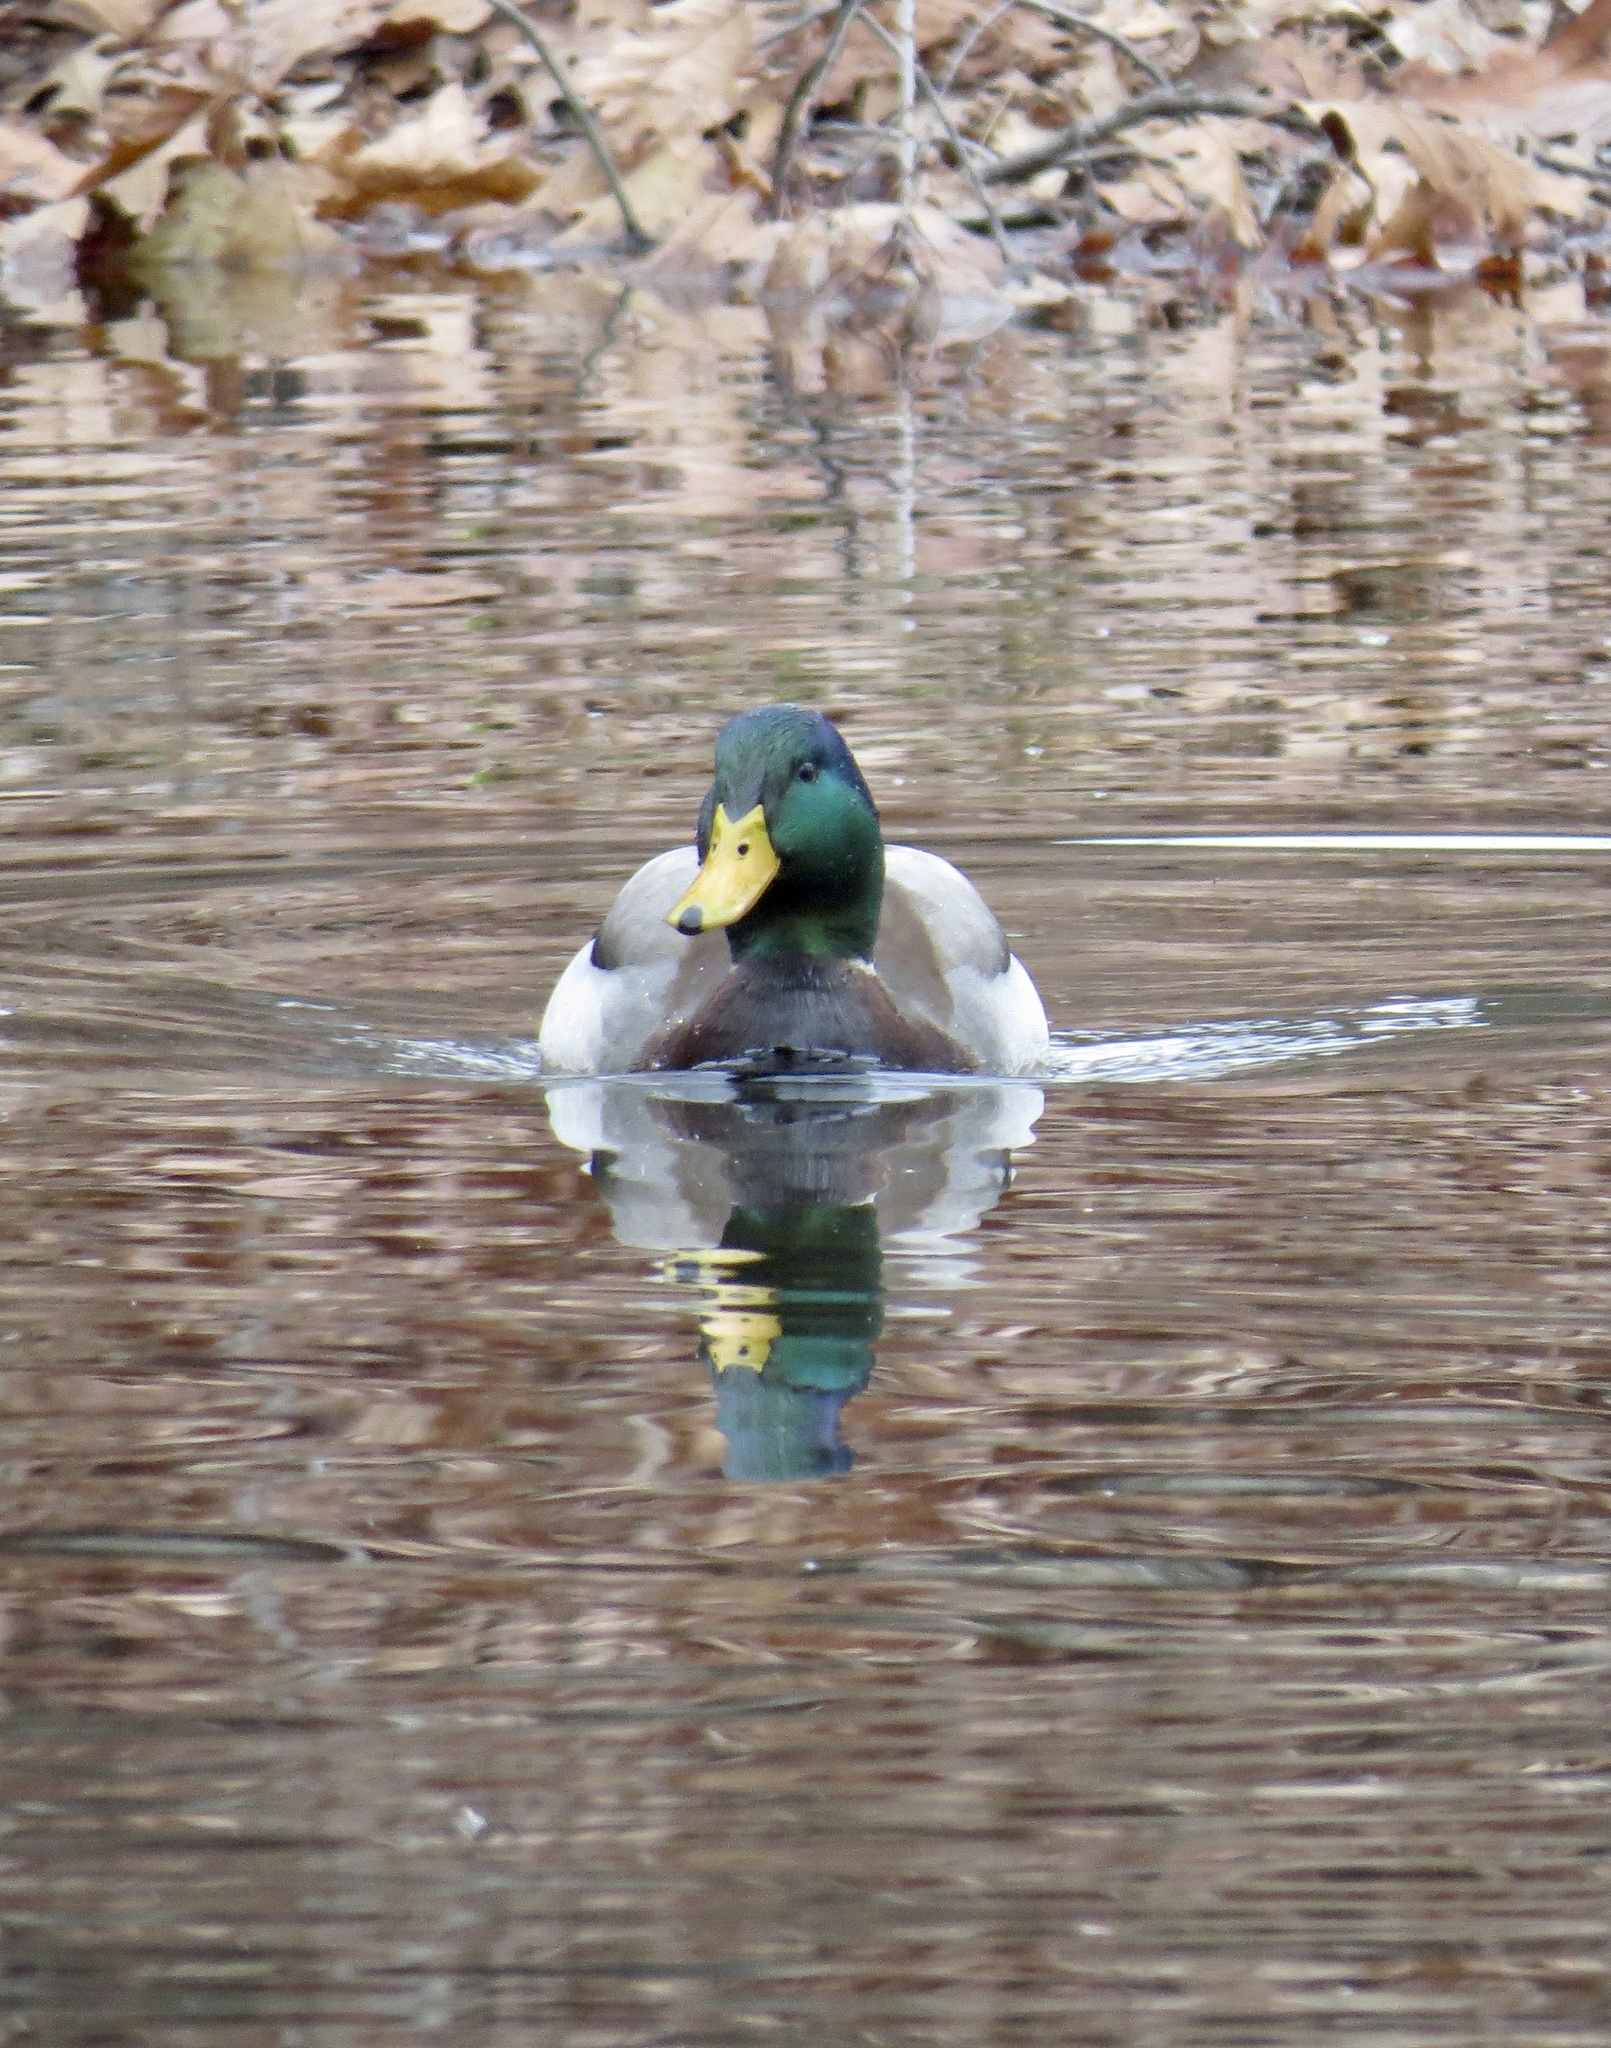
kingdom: Animalia
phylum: Chordata
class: Aves
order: Anseriformes
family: Anatidae
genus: Anas
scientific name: Anas platyrhynchos
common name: Mallard
